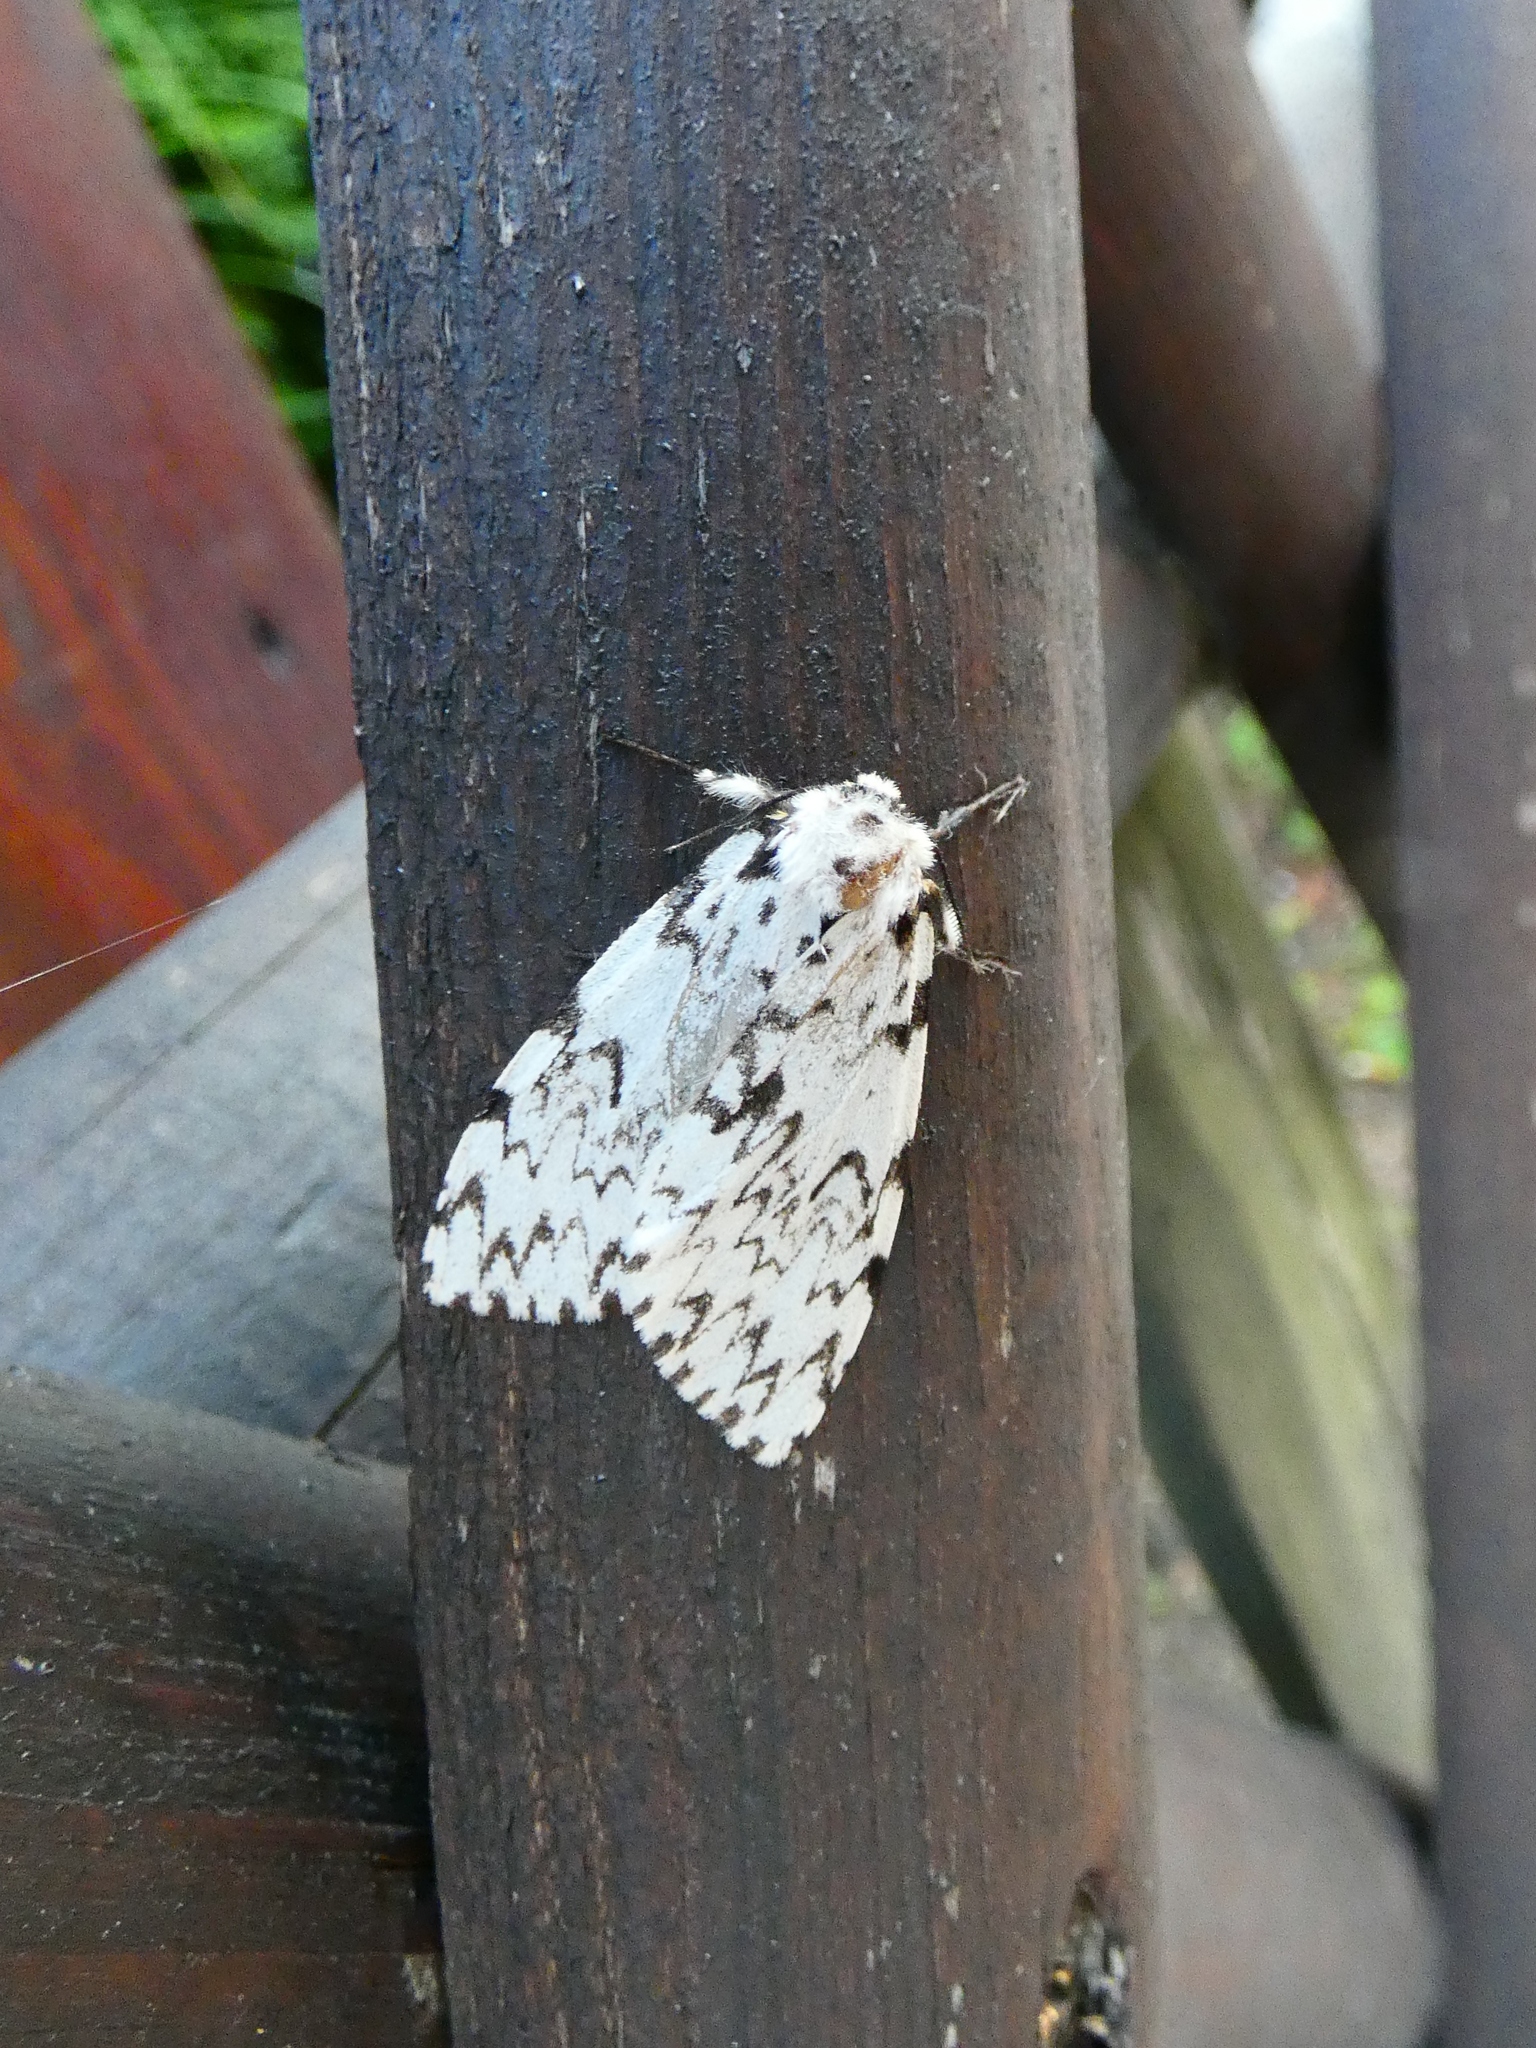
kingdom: Animalia
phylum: Arthropoda
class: Insecta
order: Lepidoptera
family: Erebidae
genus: Lymantria
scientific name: Lymantria monacha
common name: Black arches
